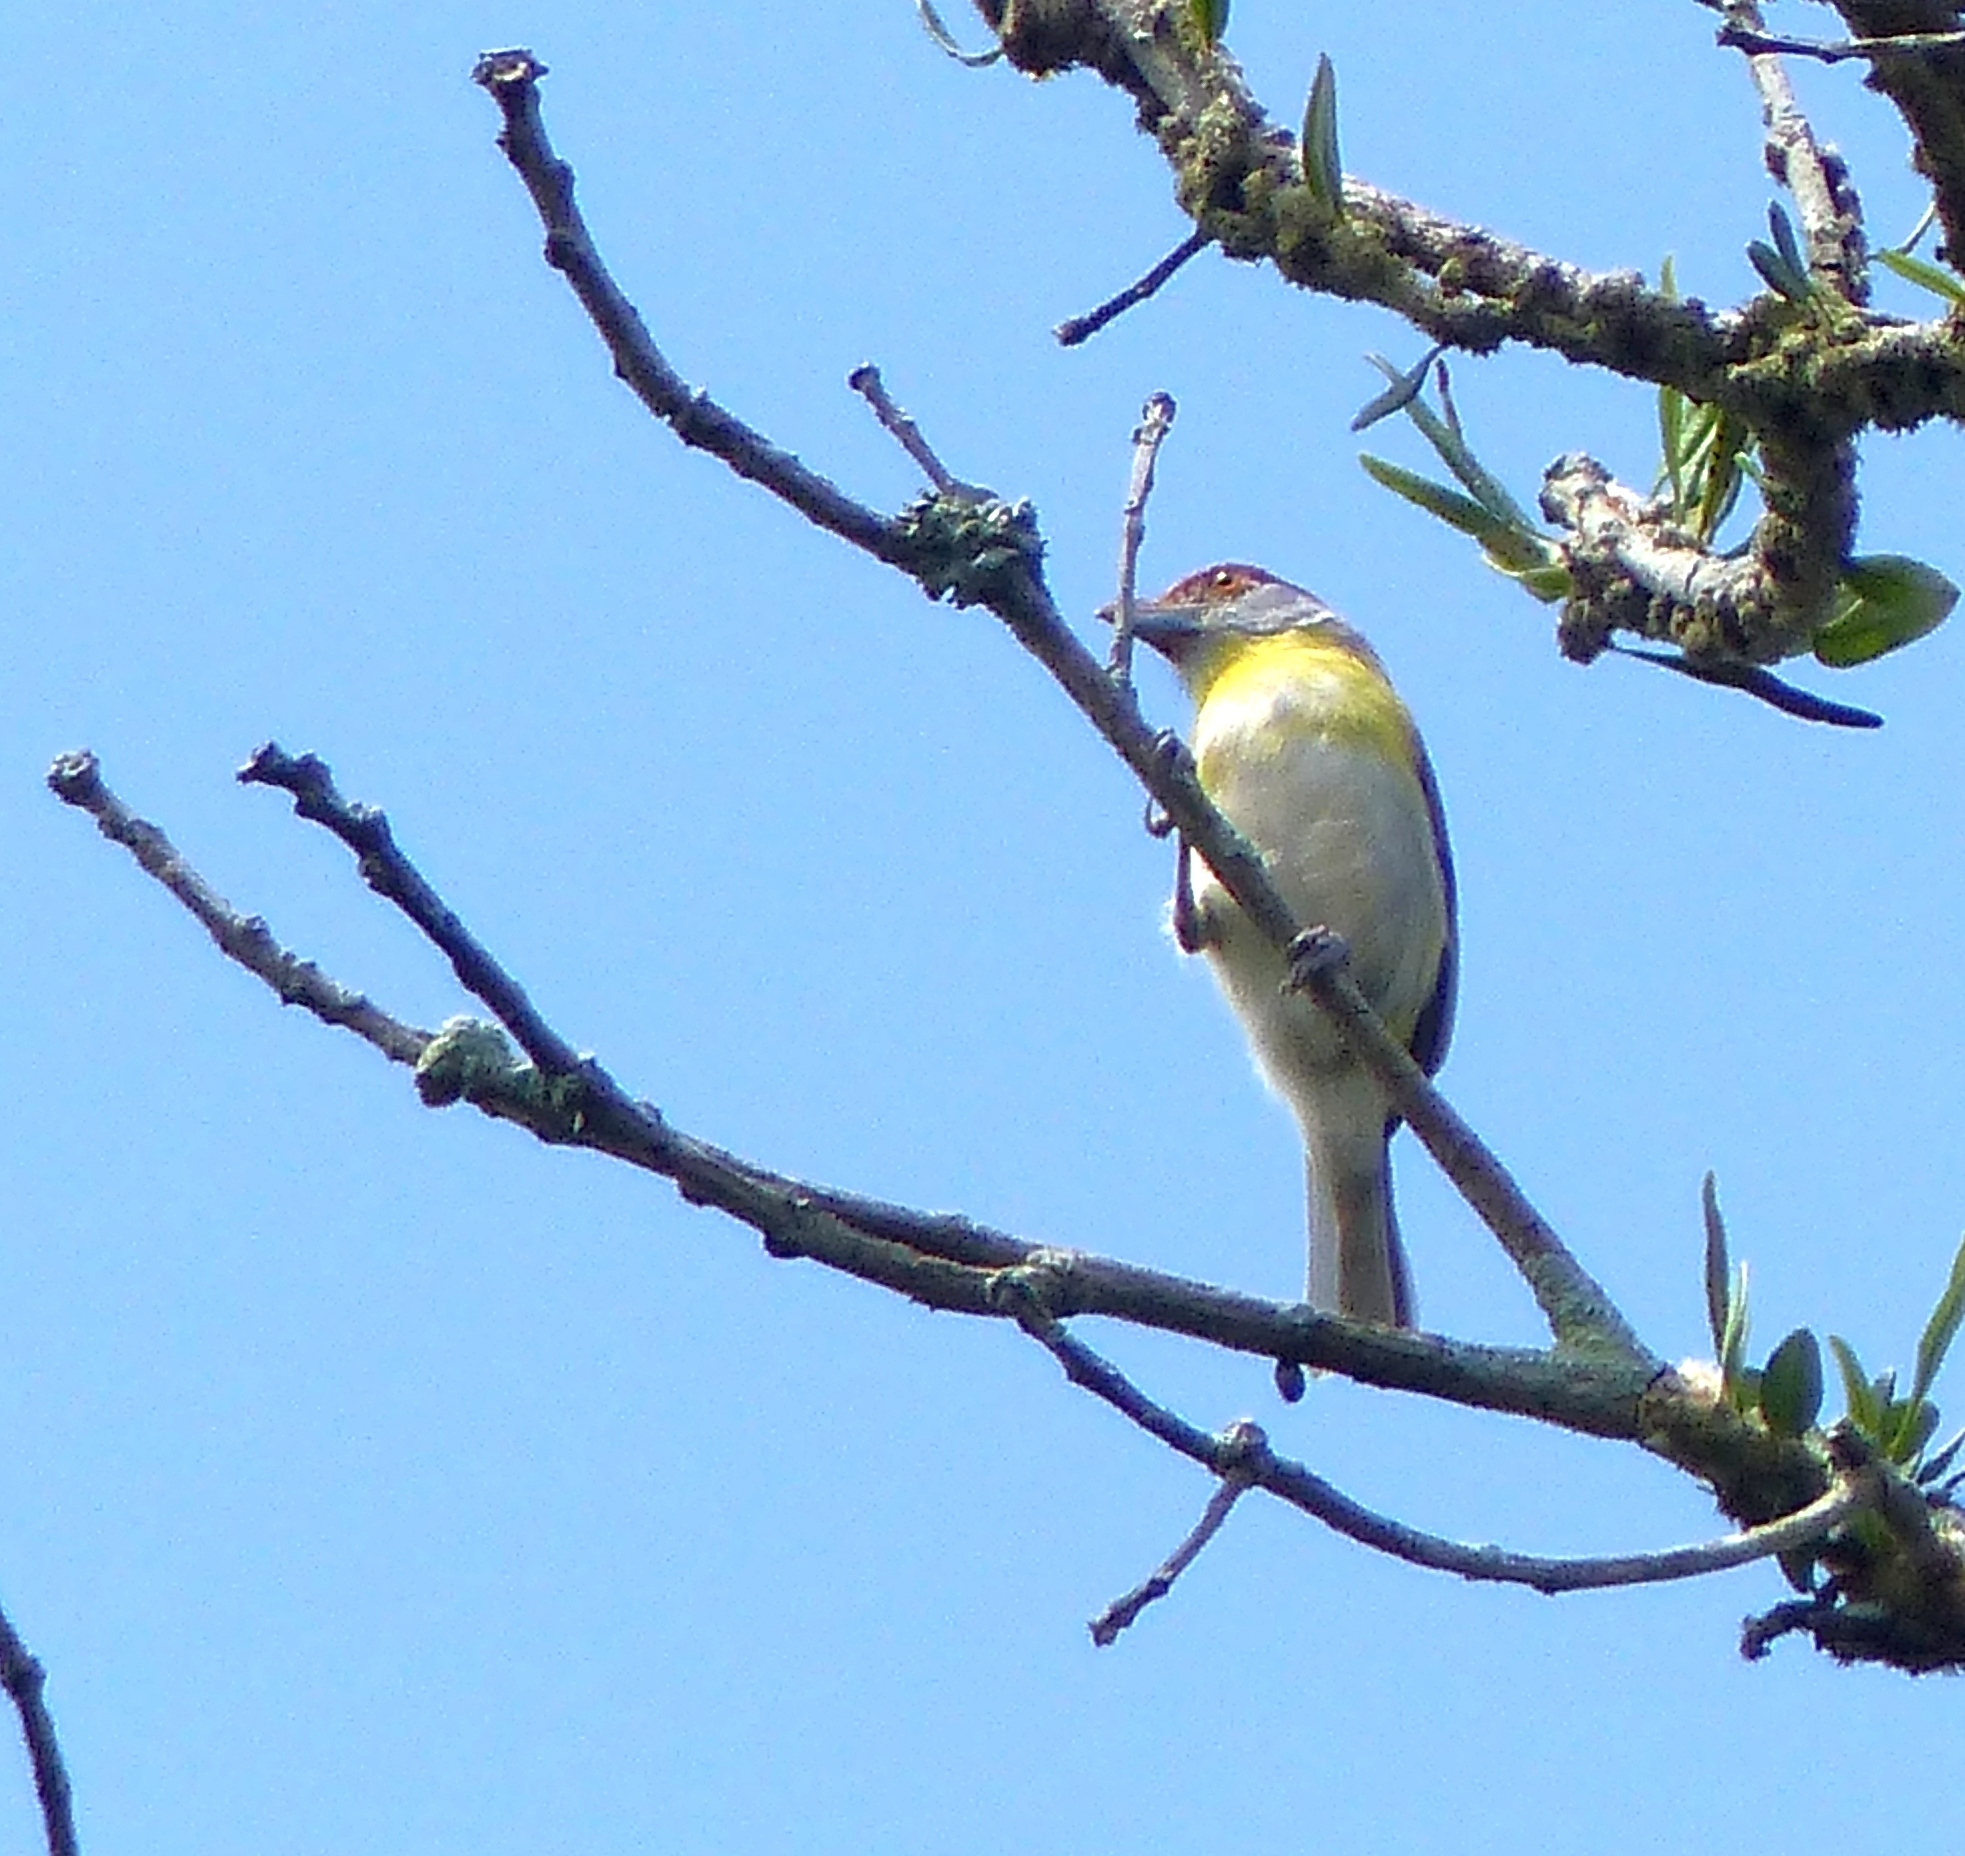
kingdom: Animalia
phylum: Chordata
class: Aves
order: Passeriformes
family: Vireonidae
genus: Cyclarhis
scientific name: Cyclarhis gujanensis
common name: Rufous-browed peppershrike
